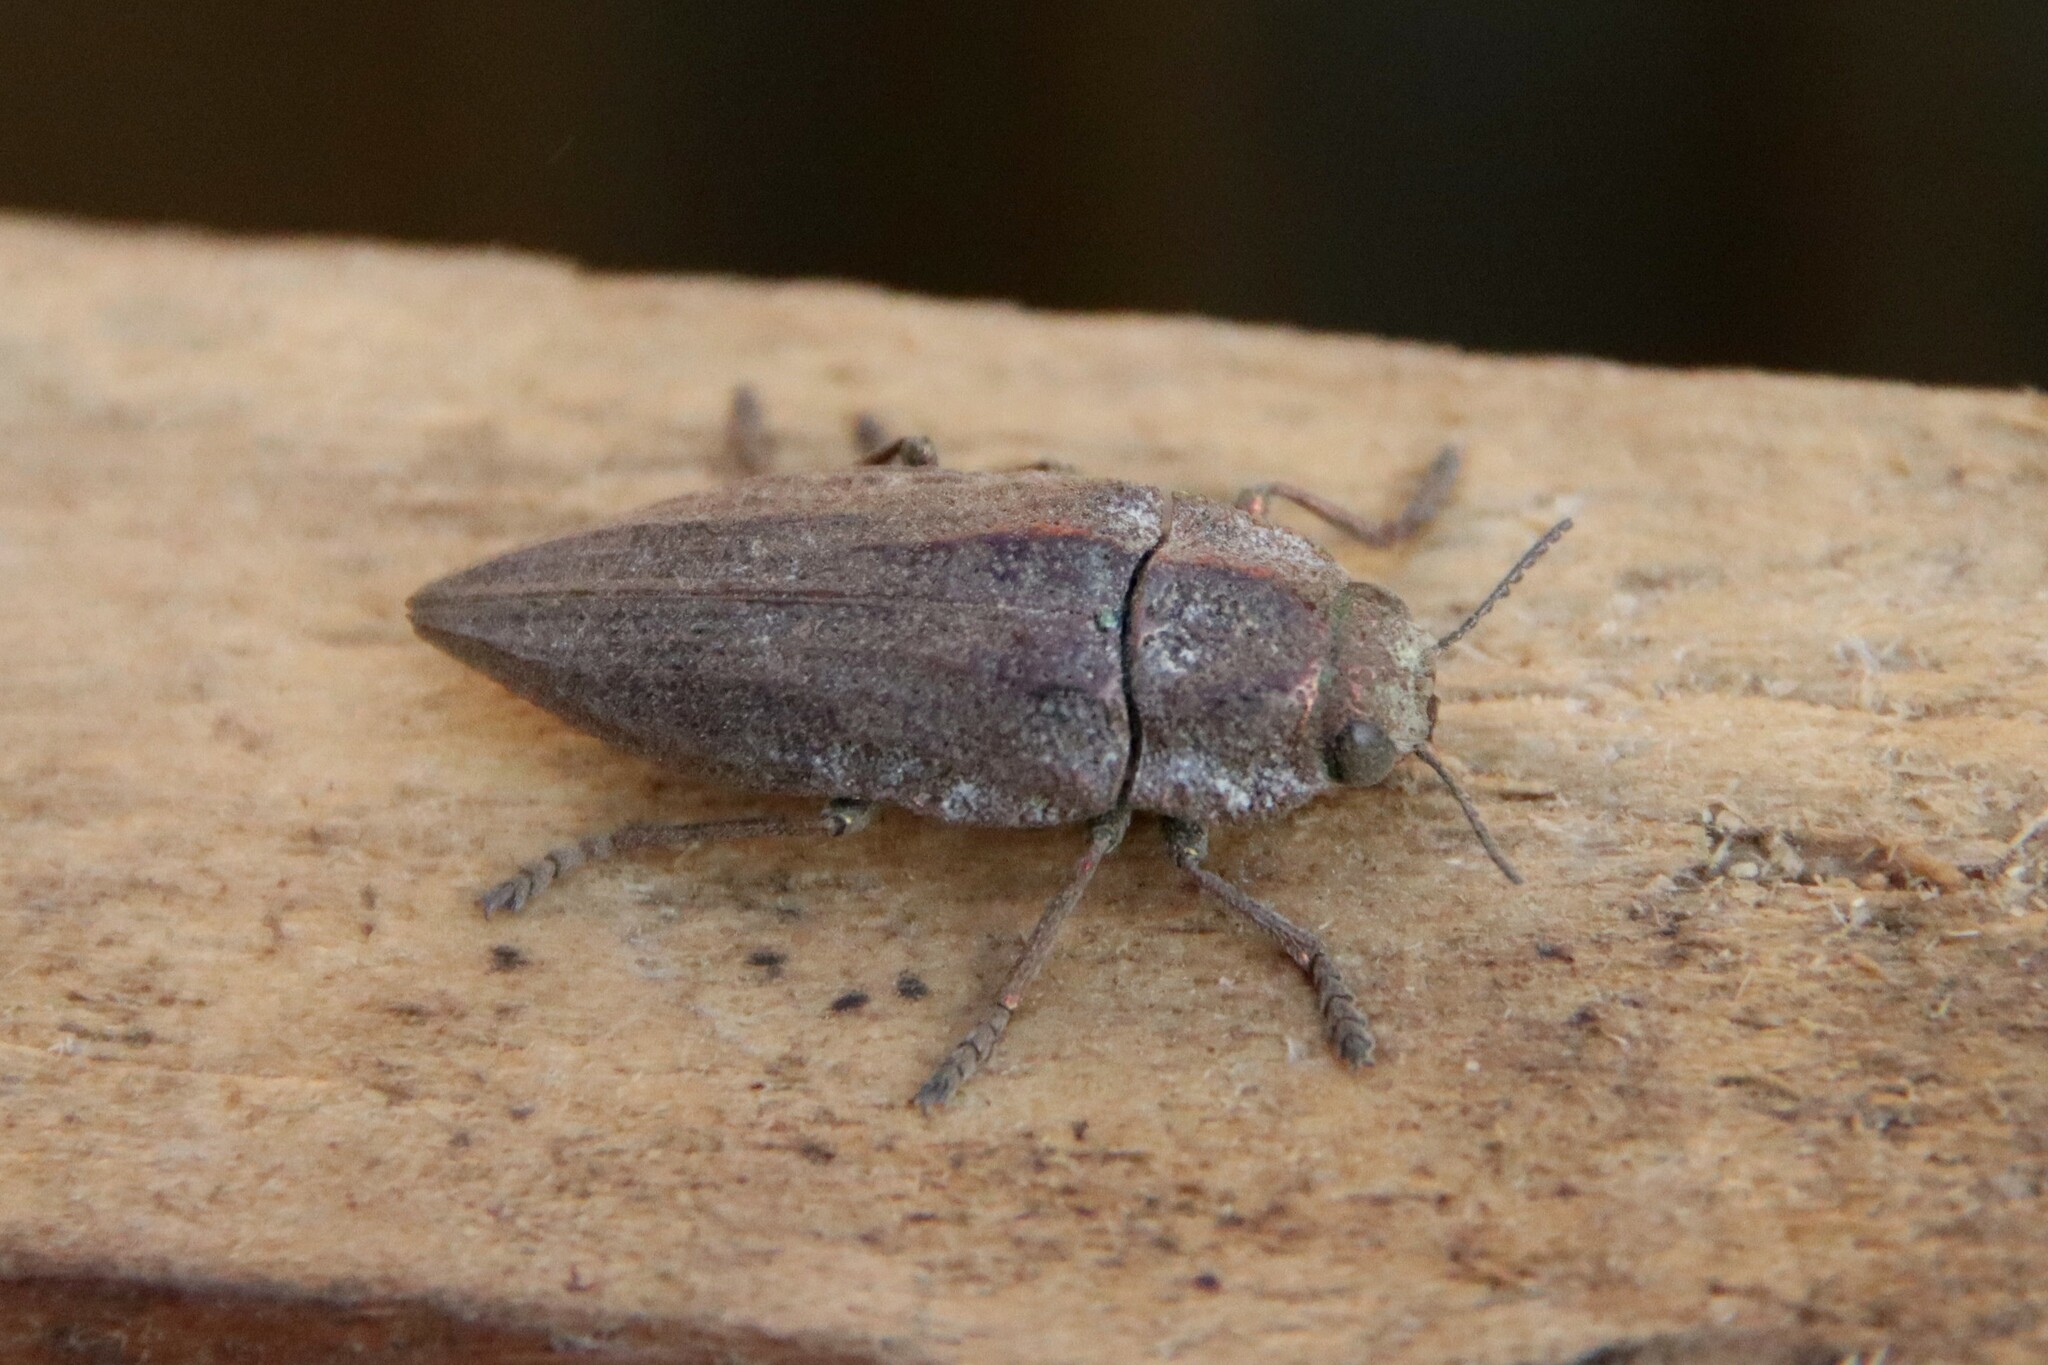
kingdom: Animalia
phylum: Arthropoda
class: Insecta
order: Coleoptera
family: Buprestidae
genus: Ectinogonia
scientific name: Ectinogonia buquetii
